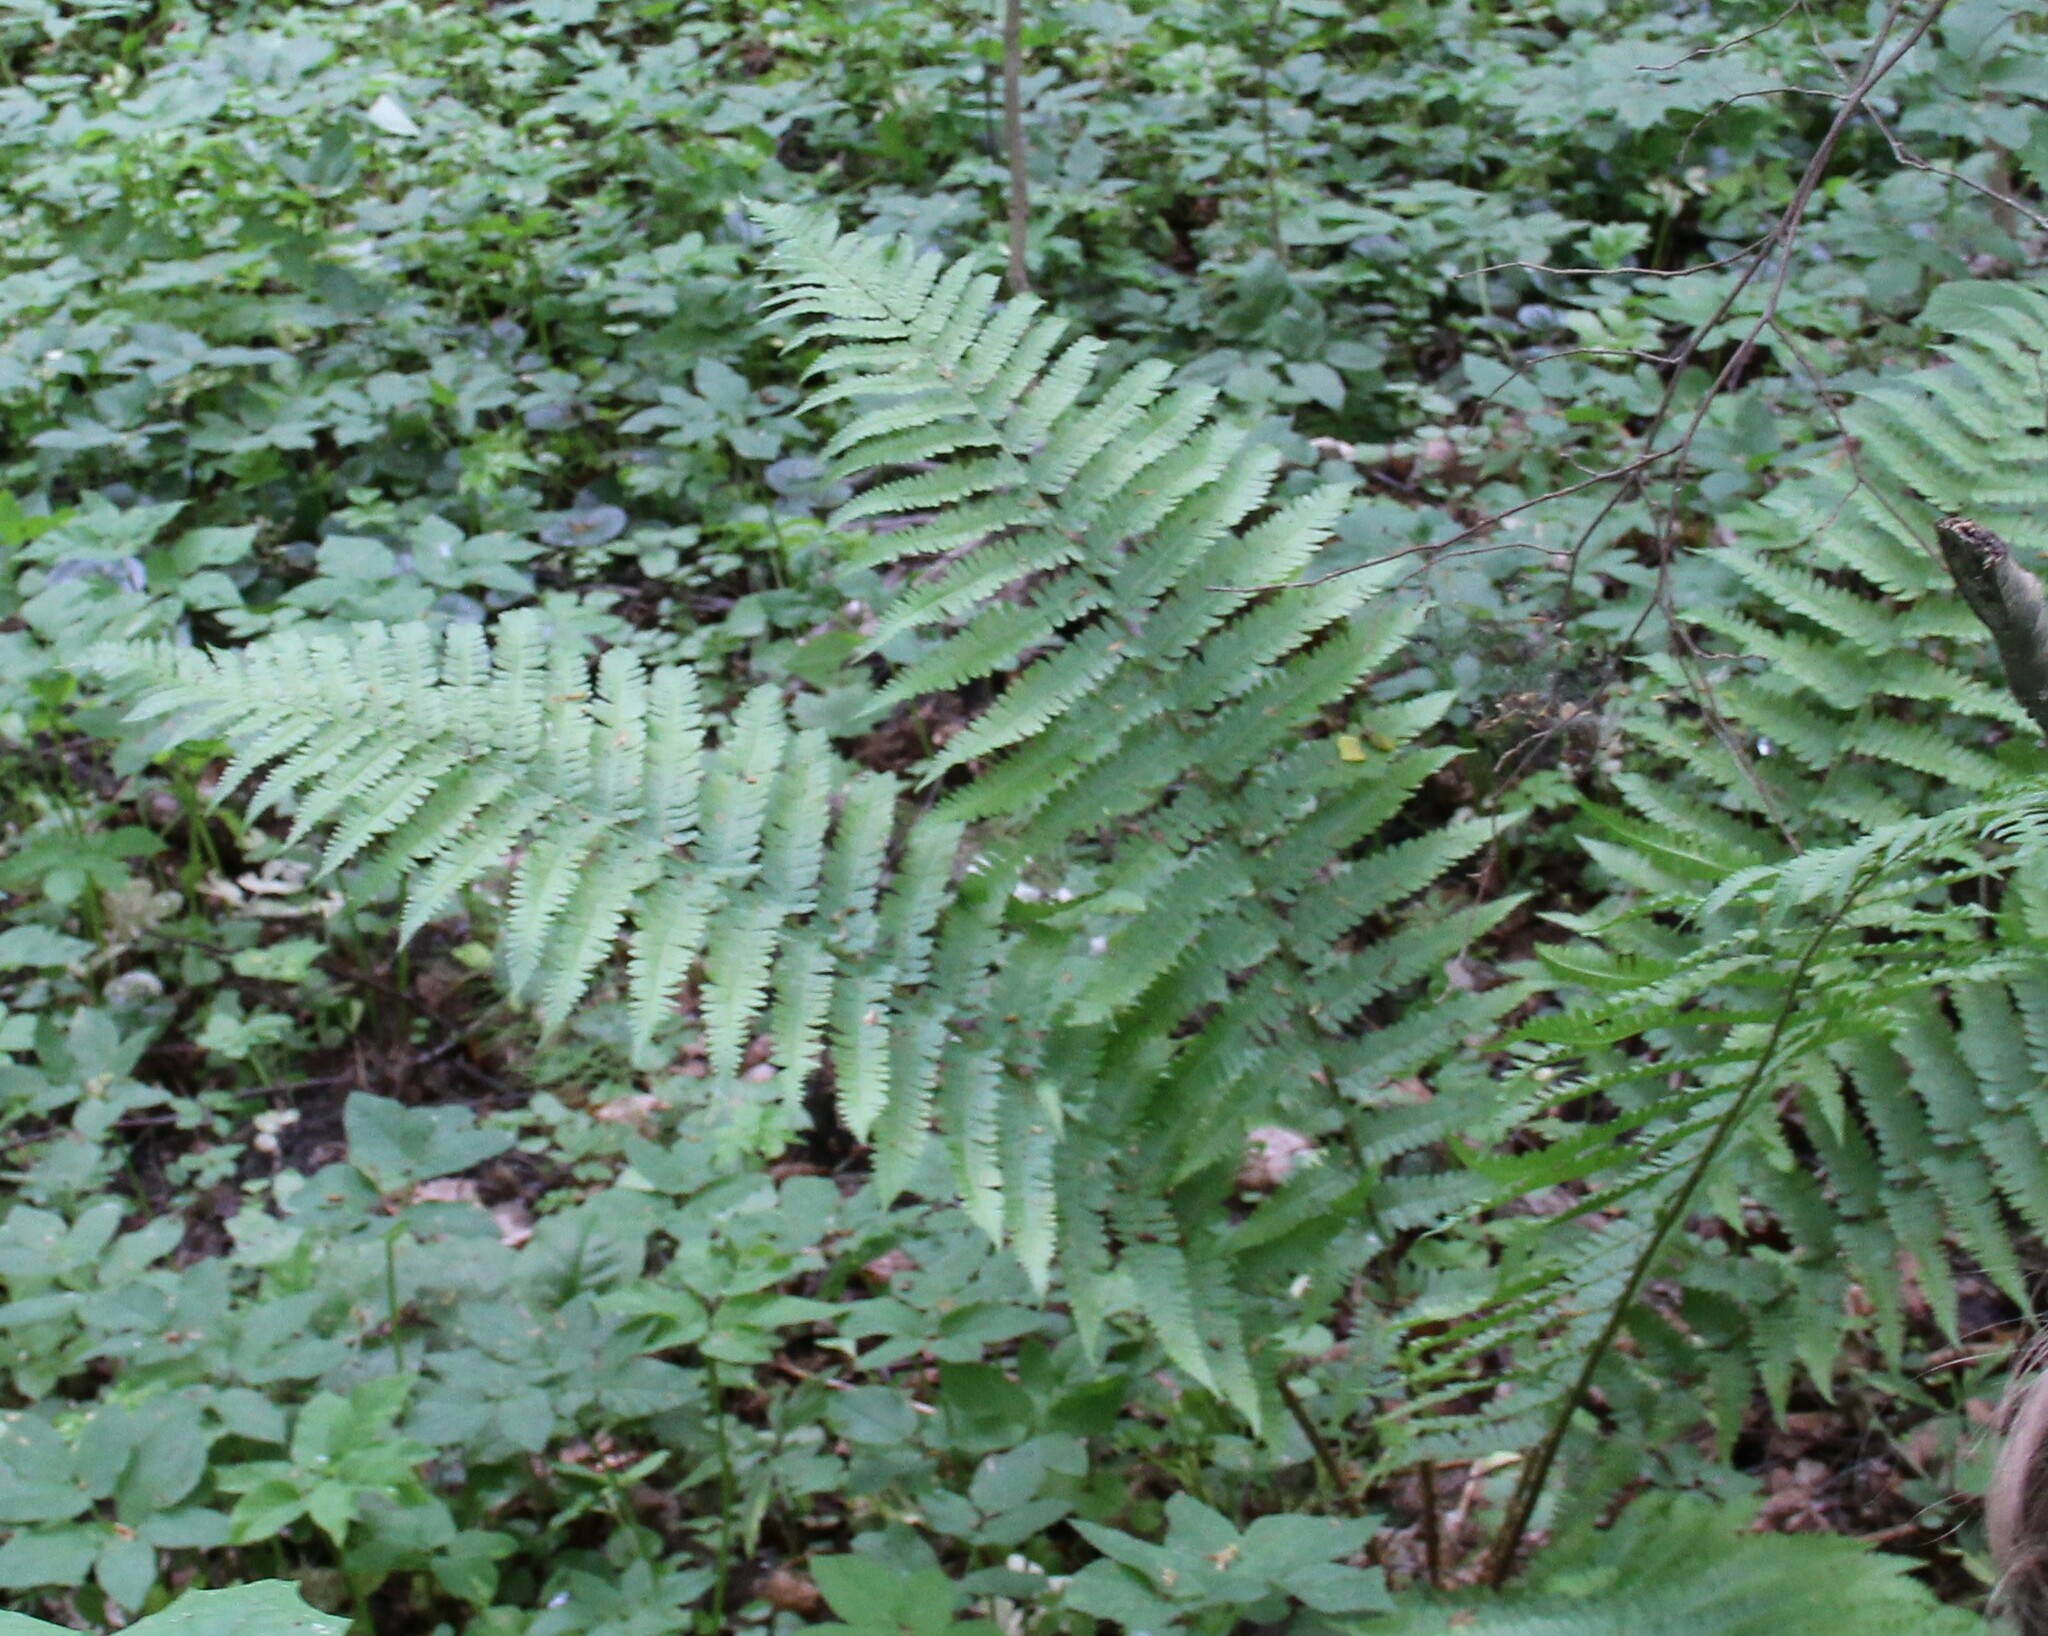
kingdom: Plantae
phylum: Tracheophyta
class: Polypodiopsida
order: Polypodiales
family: Dryopteridaceae
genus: Dryopteris
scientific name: Dryopteris filix-mas
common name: Male fern
